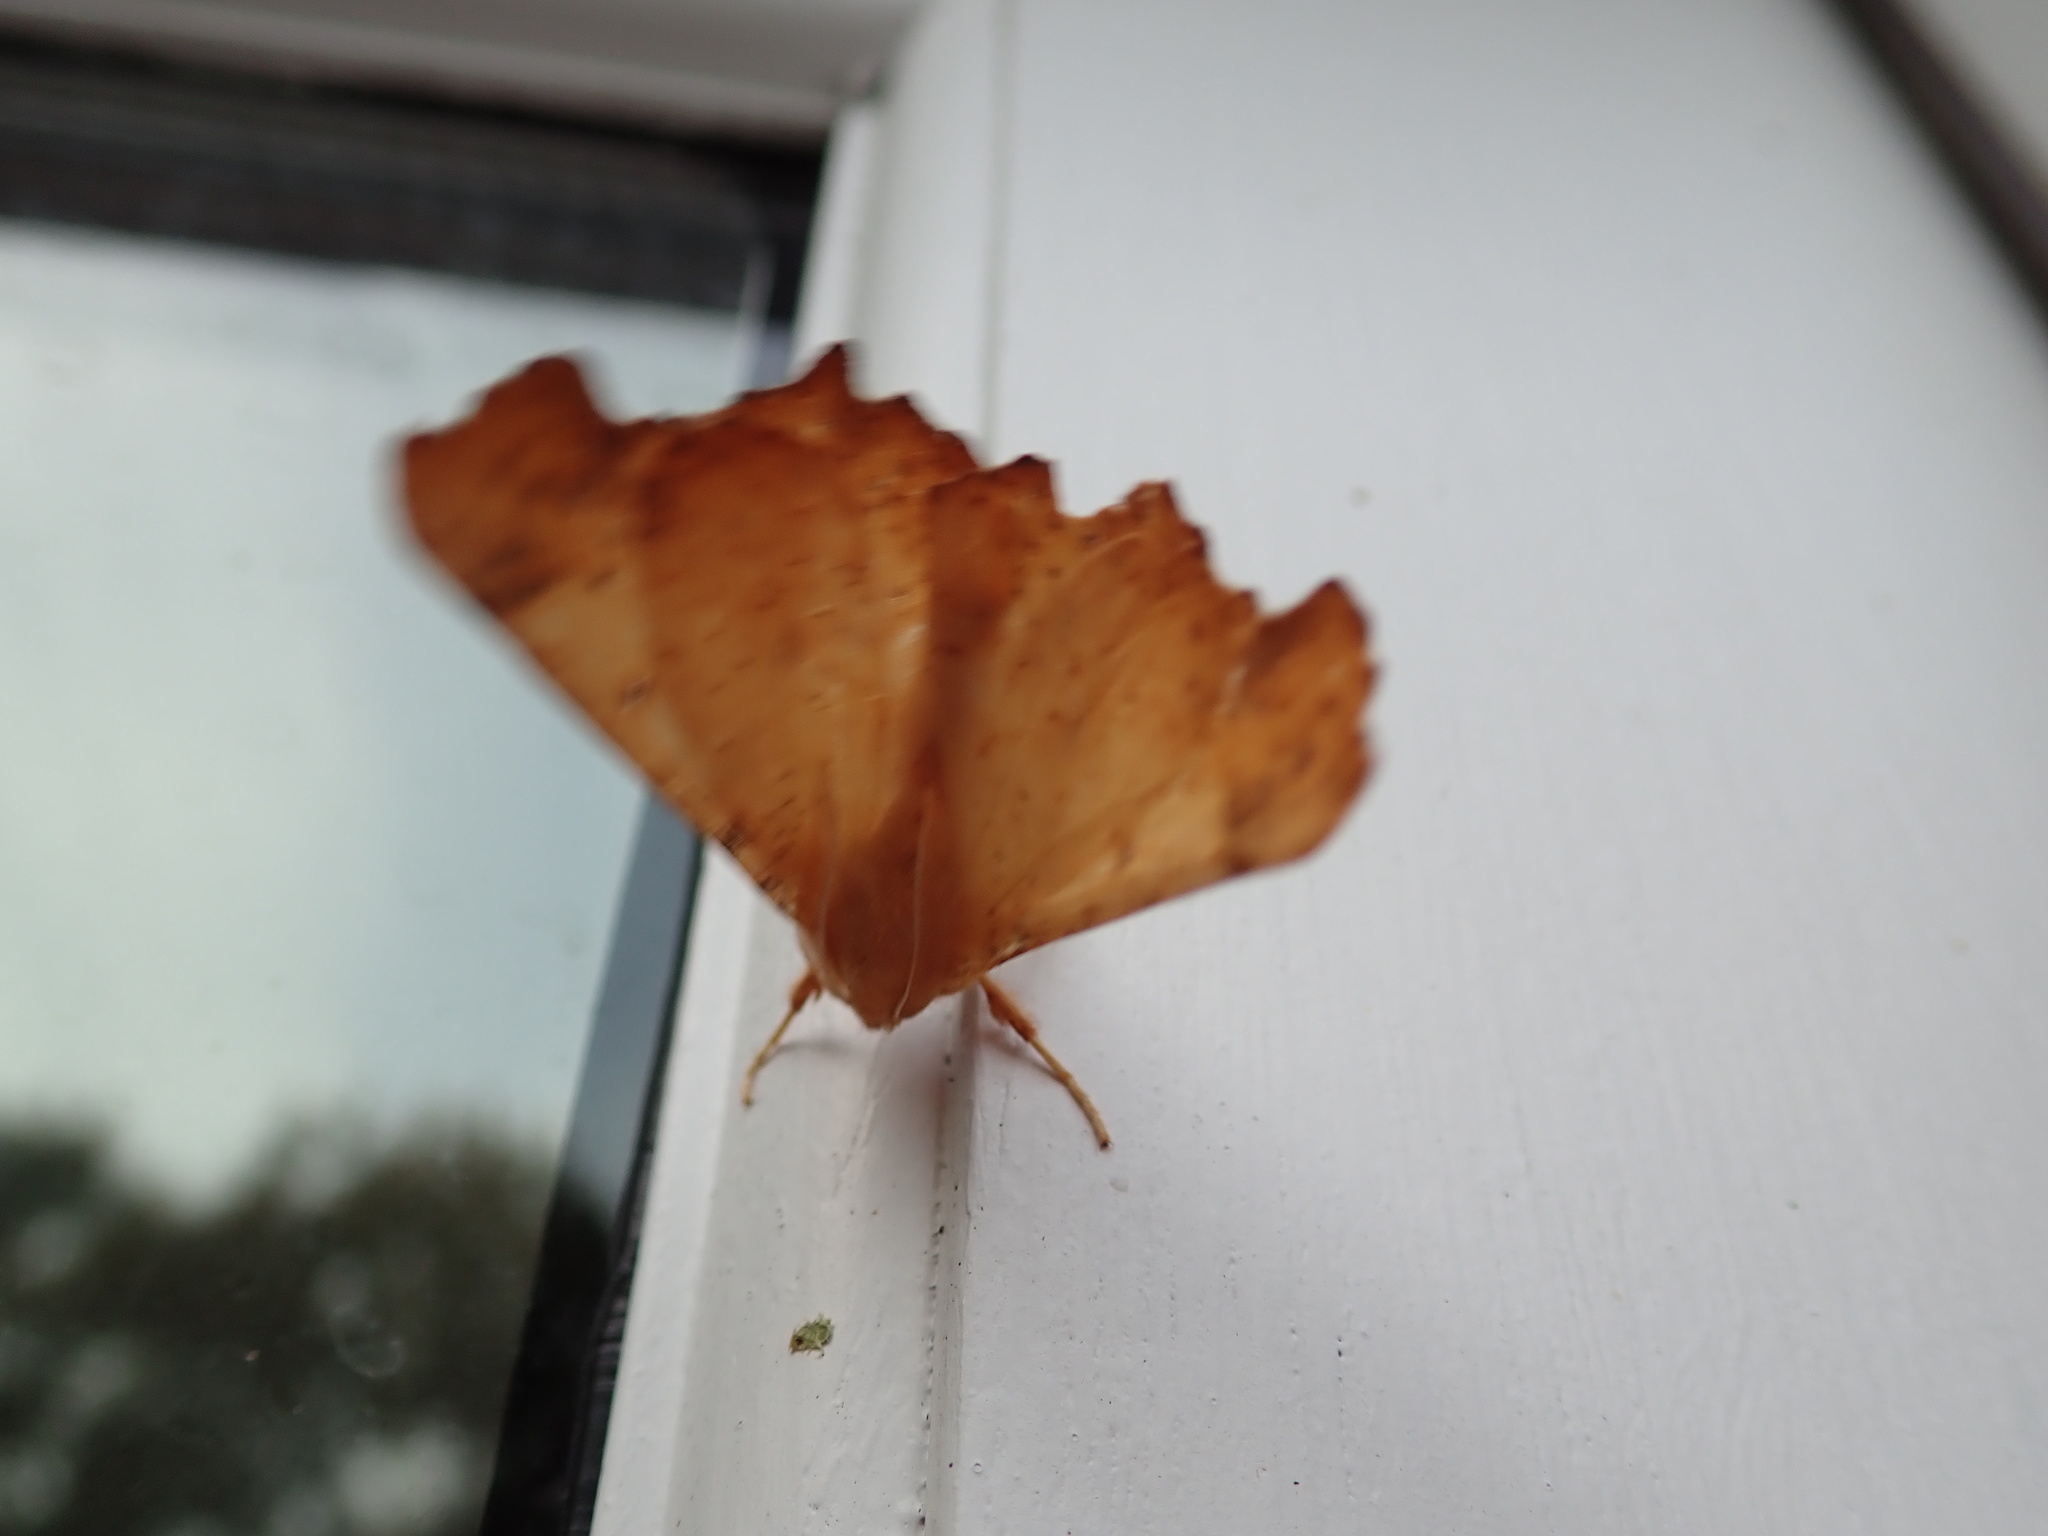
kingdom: Animalia
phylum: Arthropoda
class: Insecta
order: Lepidoptera
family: Geometridae
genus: Ennomos
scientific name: Ennomos magnaria
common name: Maple spanworm
